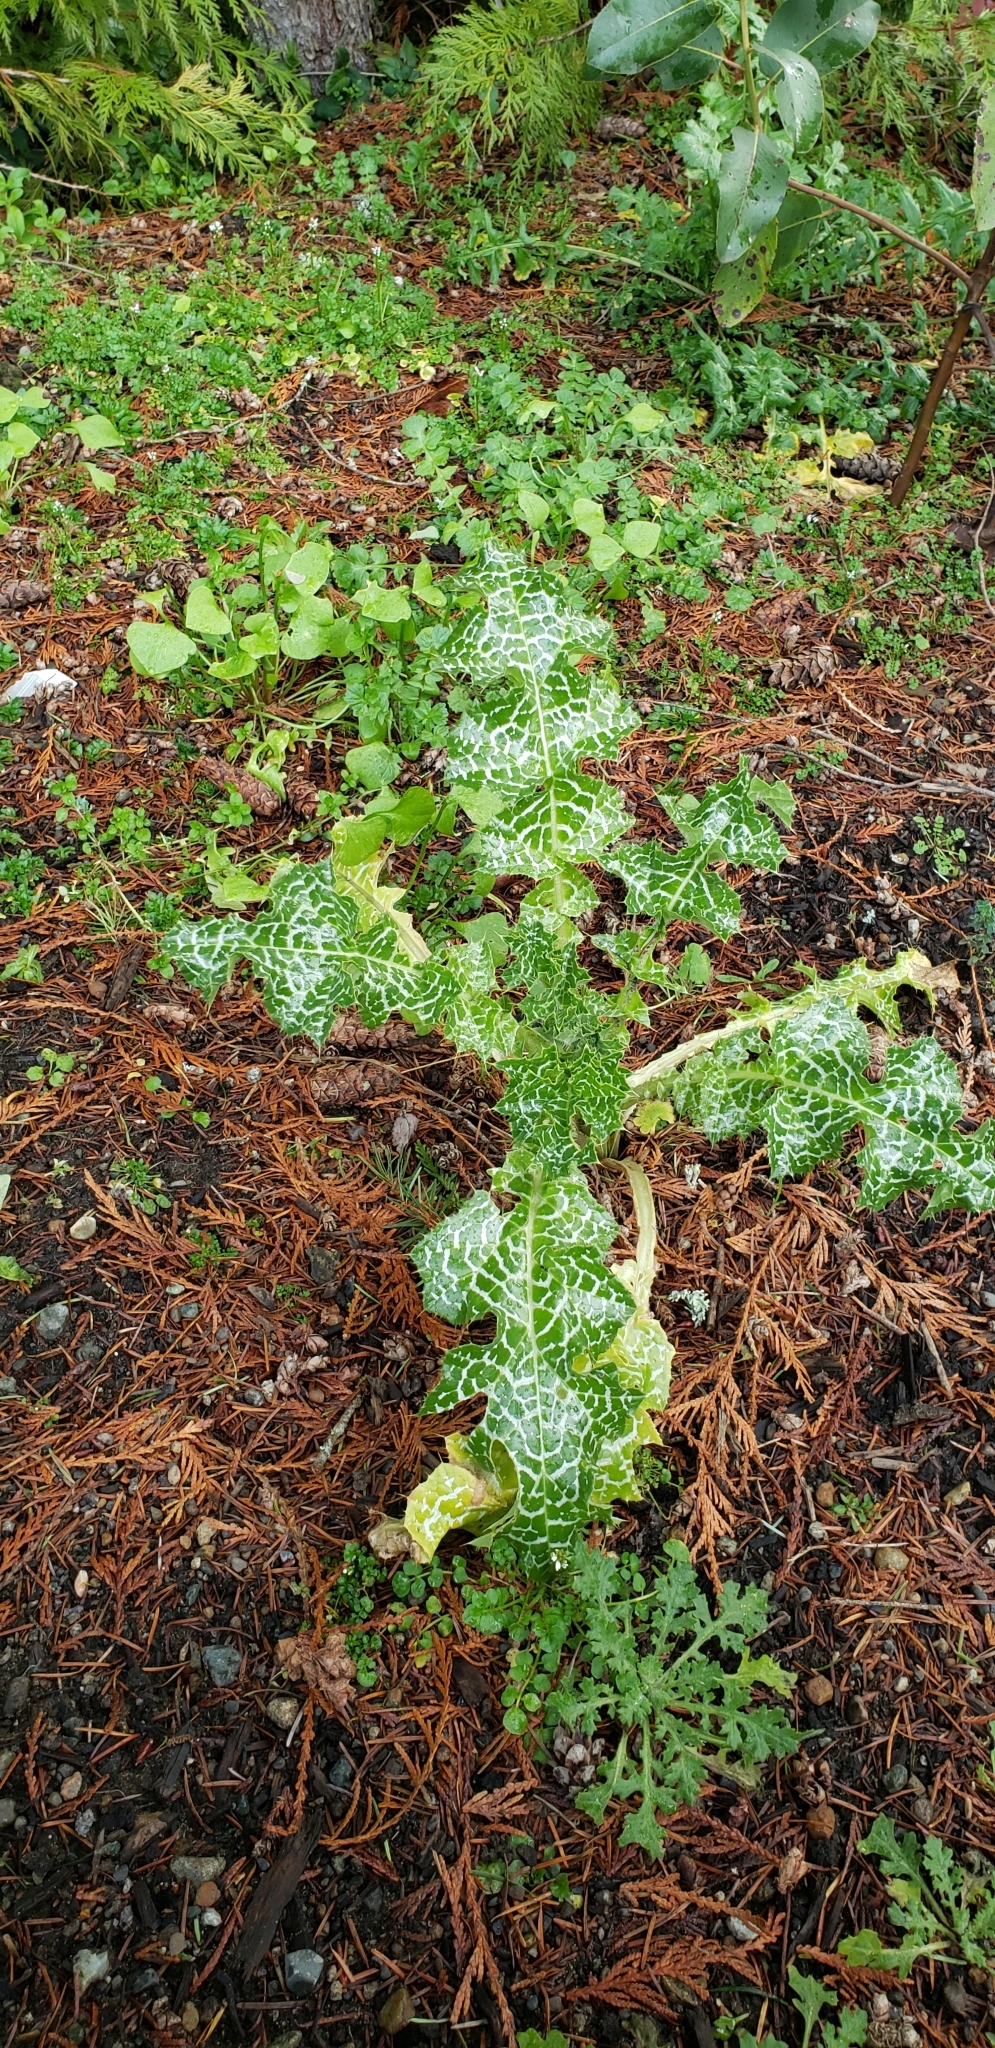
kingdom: Plantae
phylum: Tracheophyta
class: Magnoliopsida
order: Asterales
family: Asteraceae
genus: Silybum
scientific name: Silybum marianum
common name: Milk thistle
